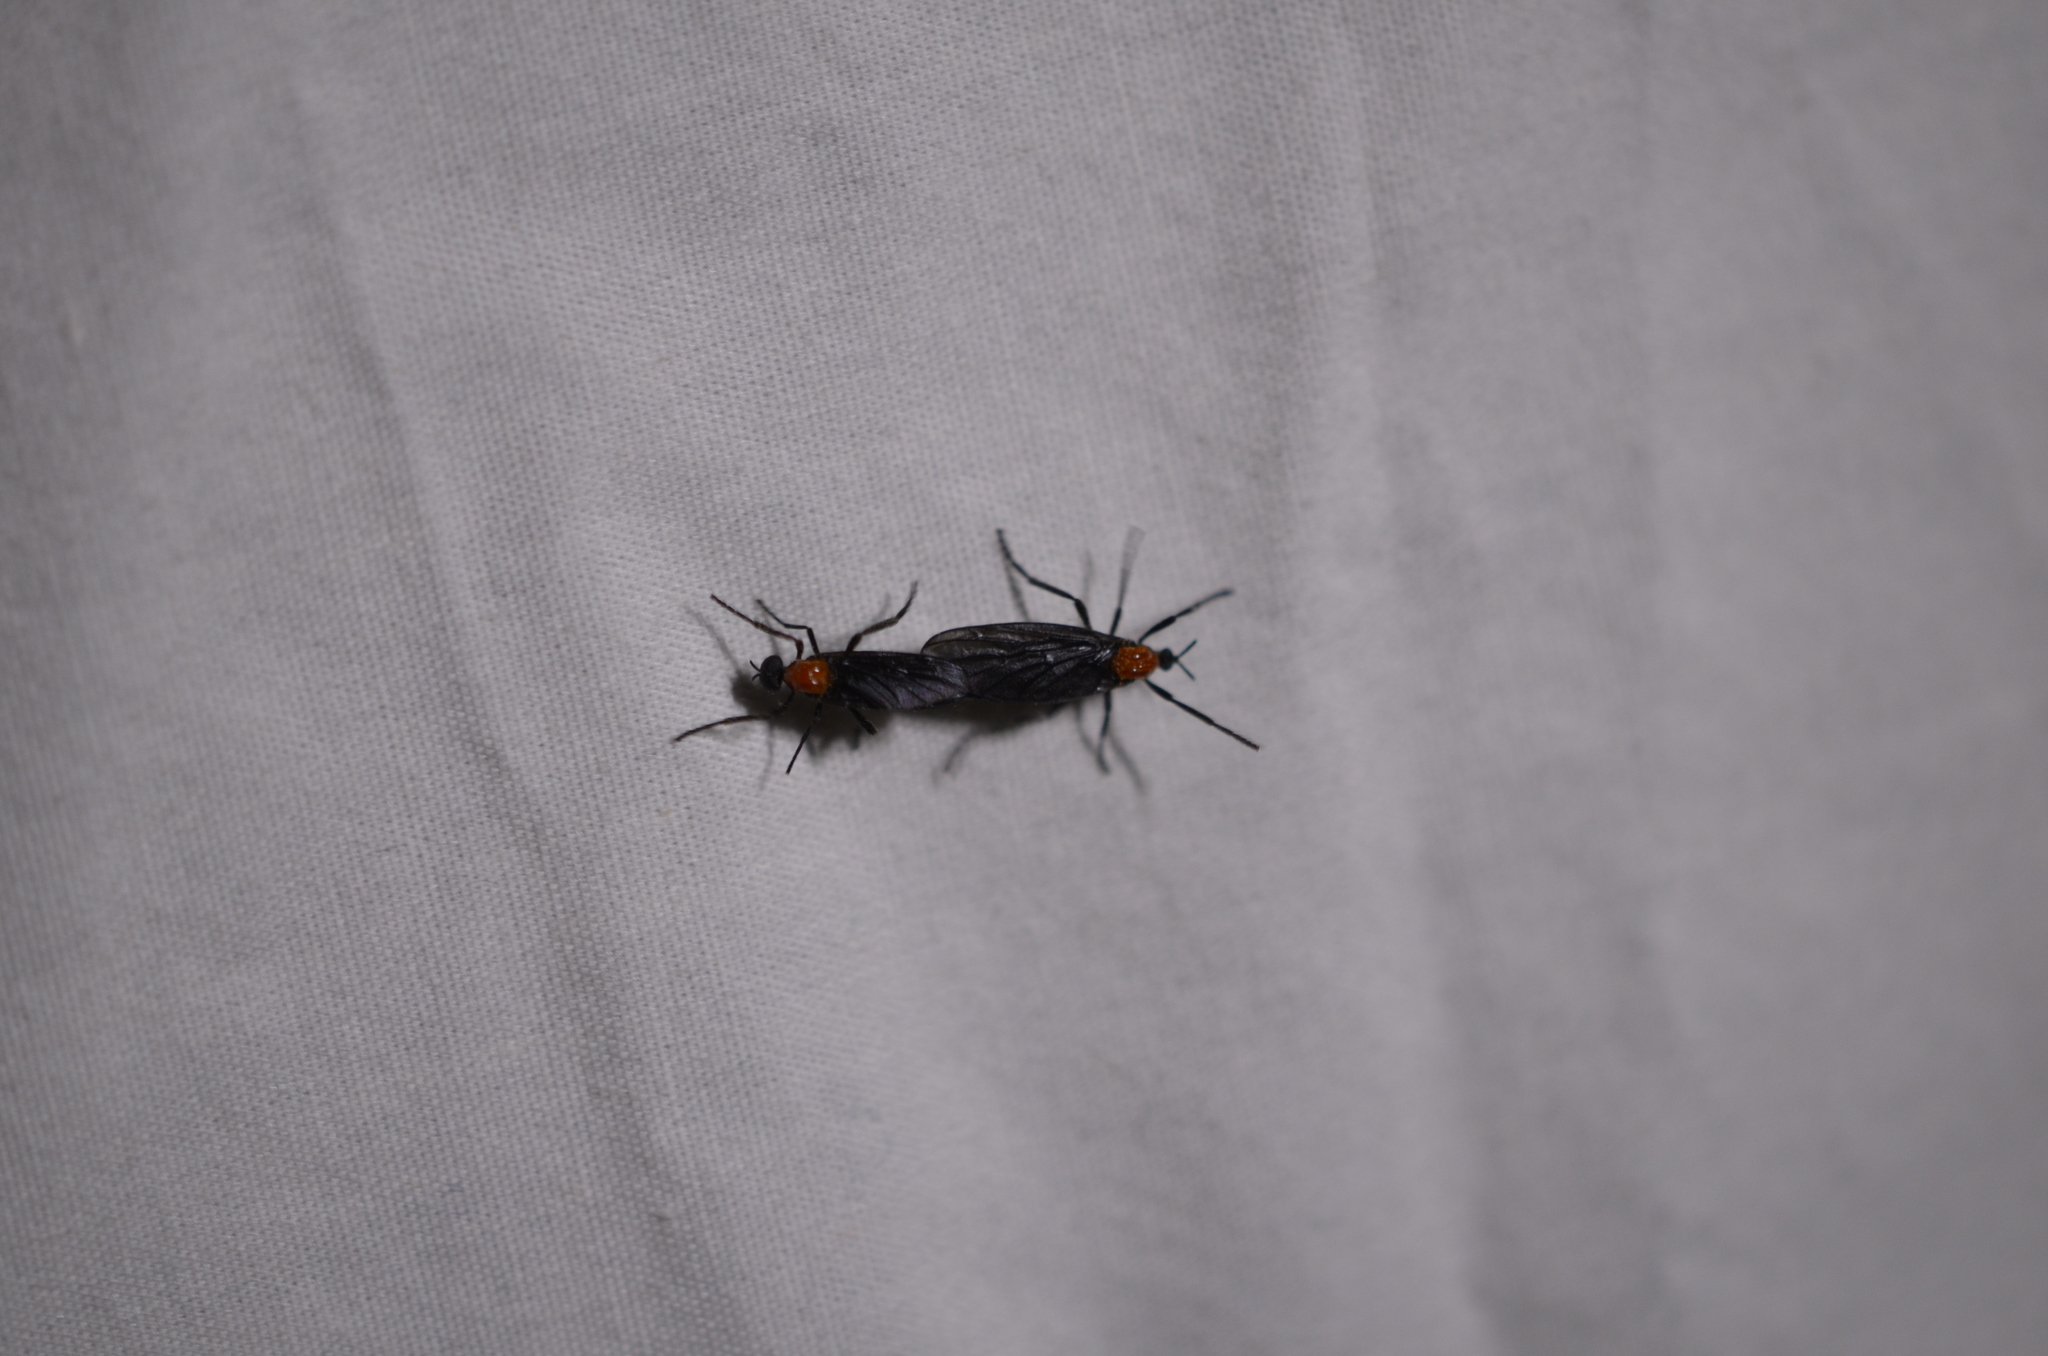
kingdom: Animalia
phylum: Arthropoda
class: Insecta
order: Diptera
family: Bibionidae
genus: Plecia
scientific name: Plecia nearctica
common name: March fly
